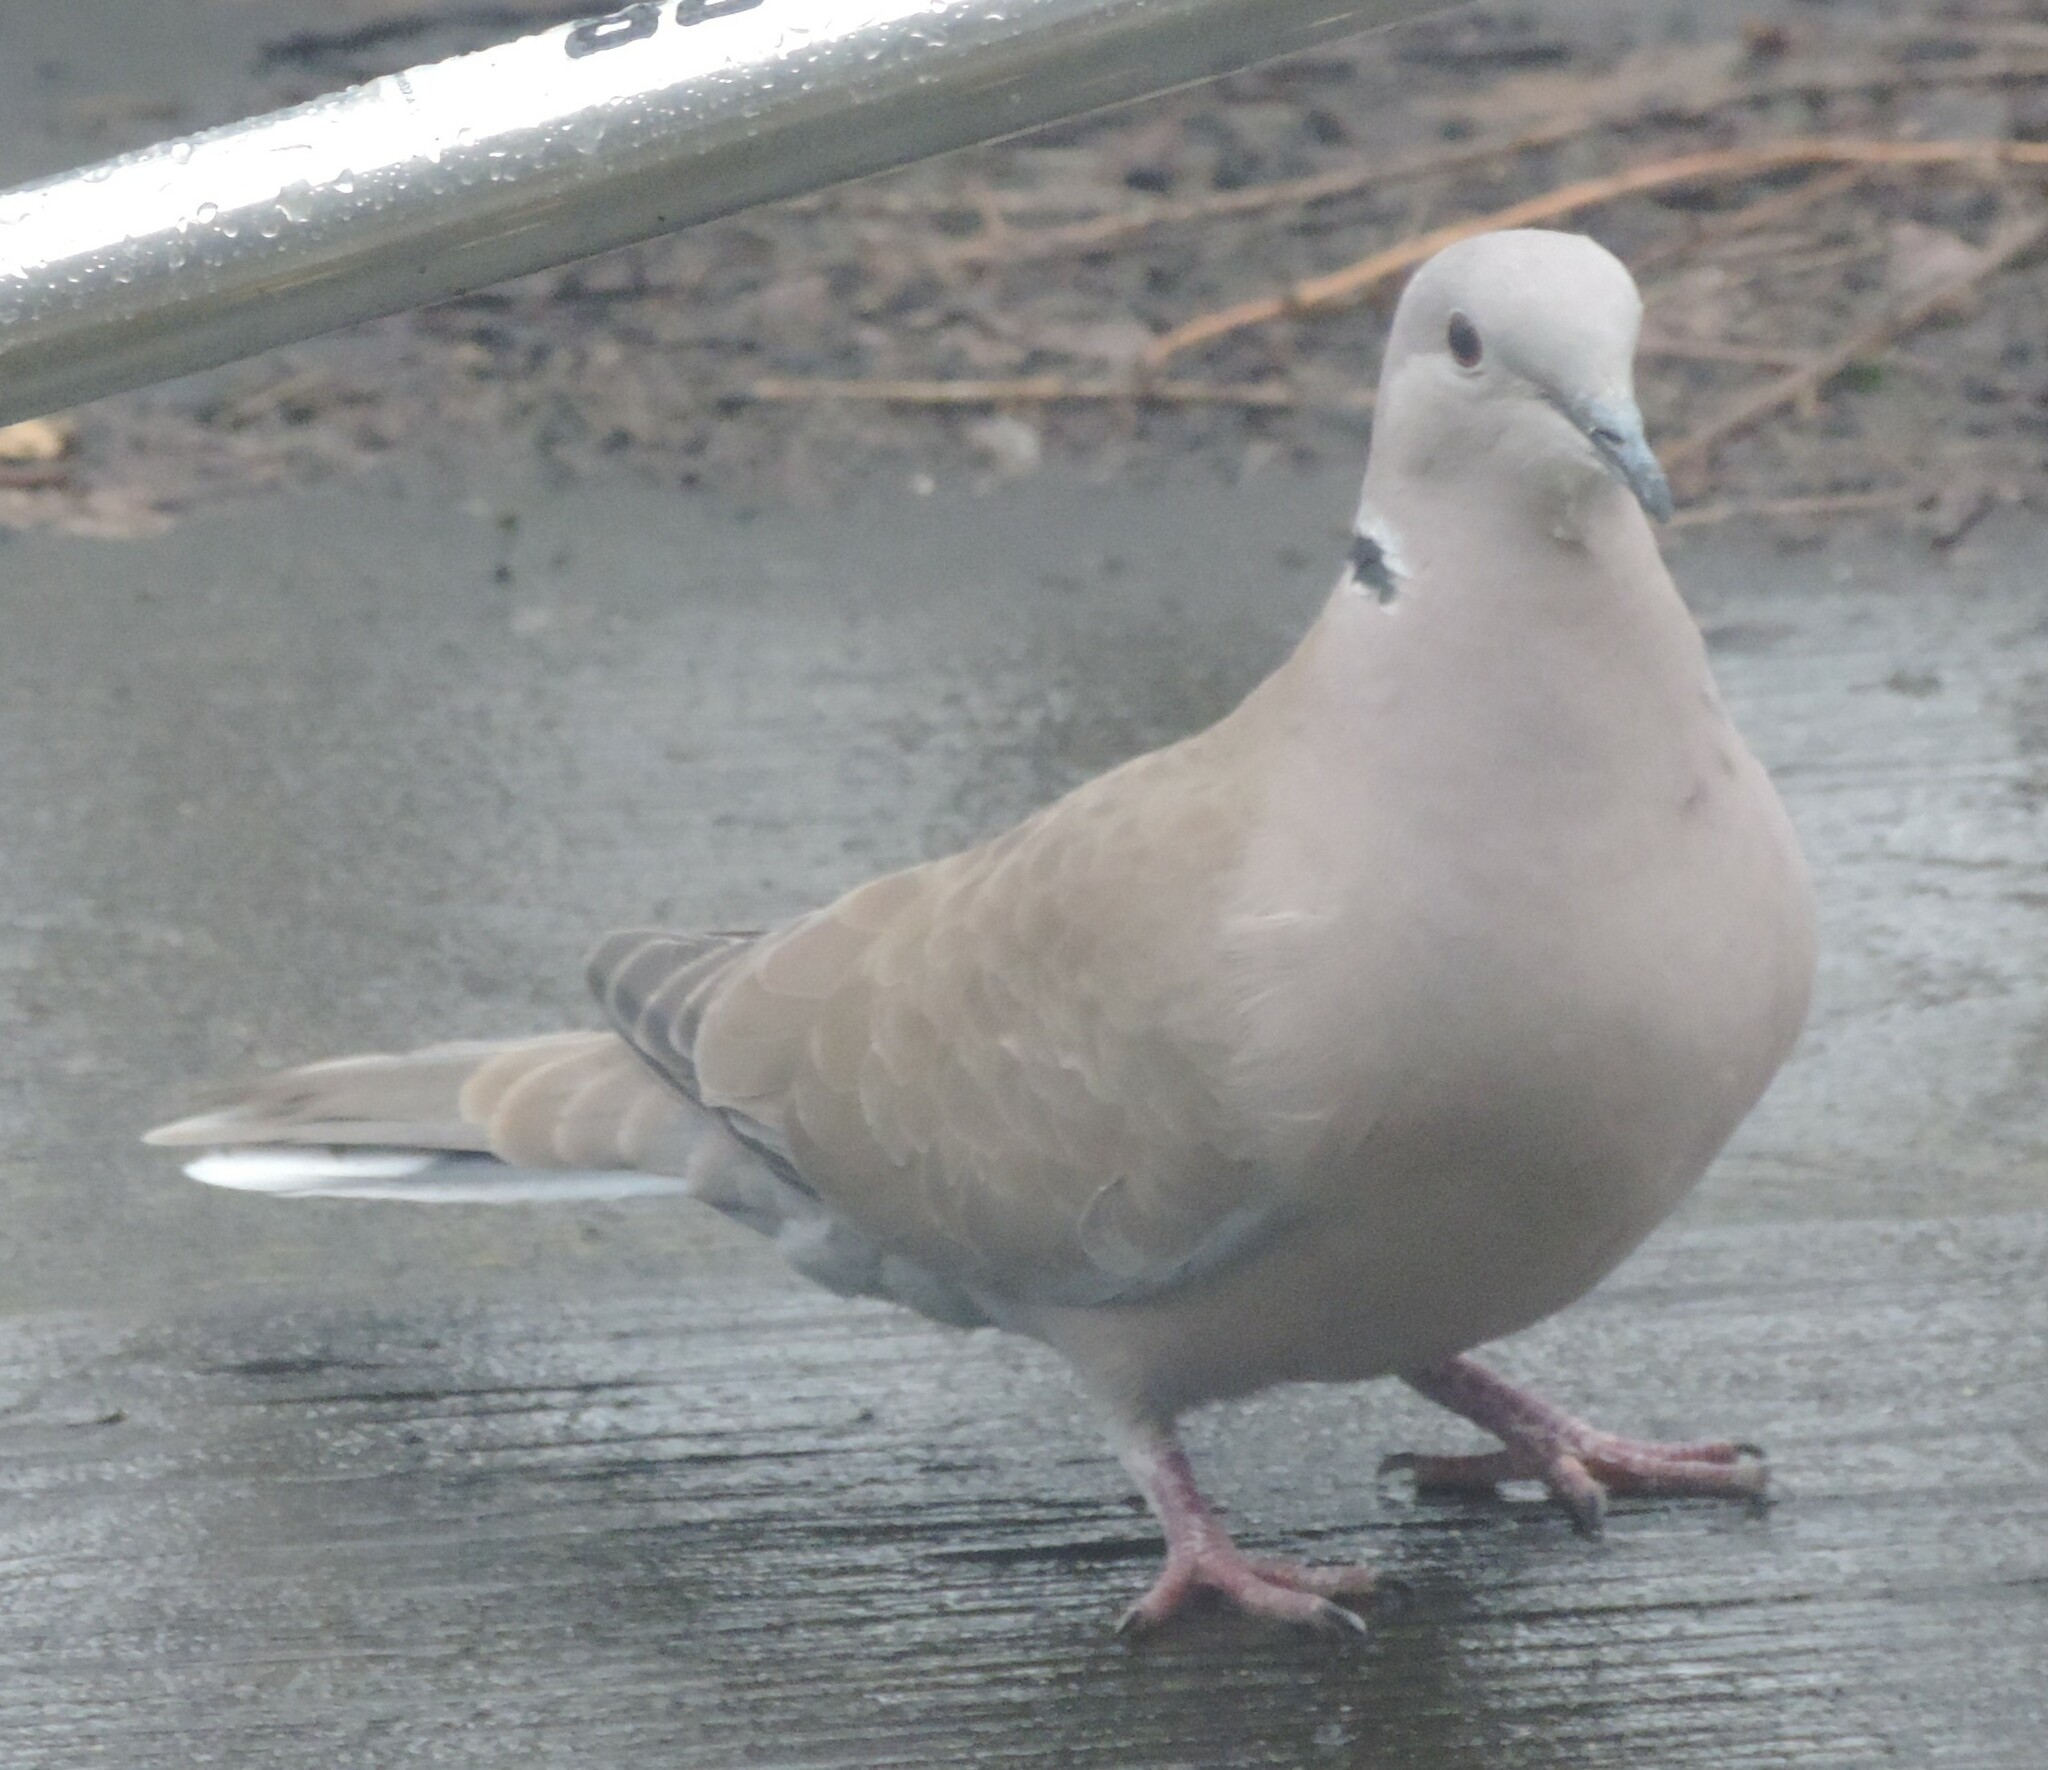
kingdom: Animalia
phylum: Chordata
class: Aves
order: Columbiformes
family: Columbidae
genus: Streptopelia
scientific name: Streptopelia decaocto
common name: Eurasian collared dove
